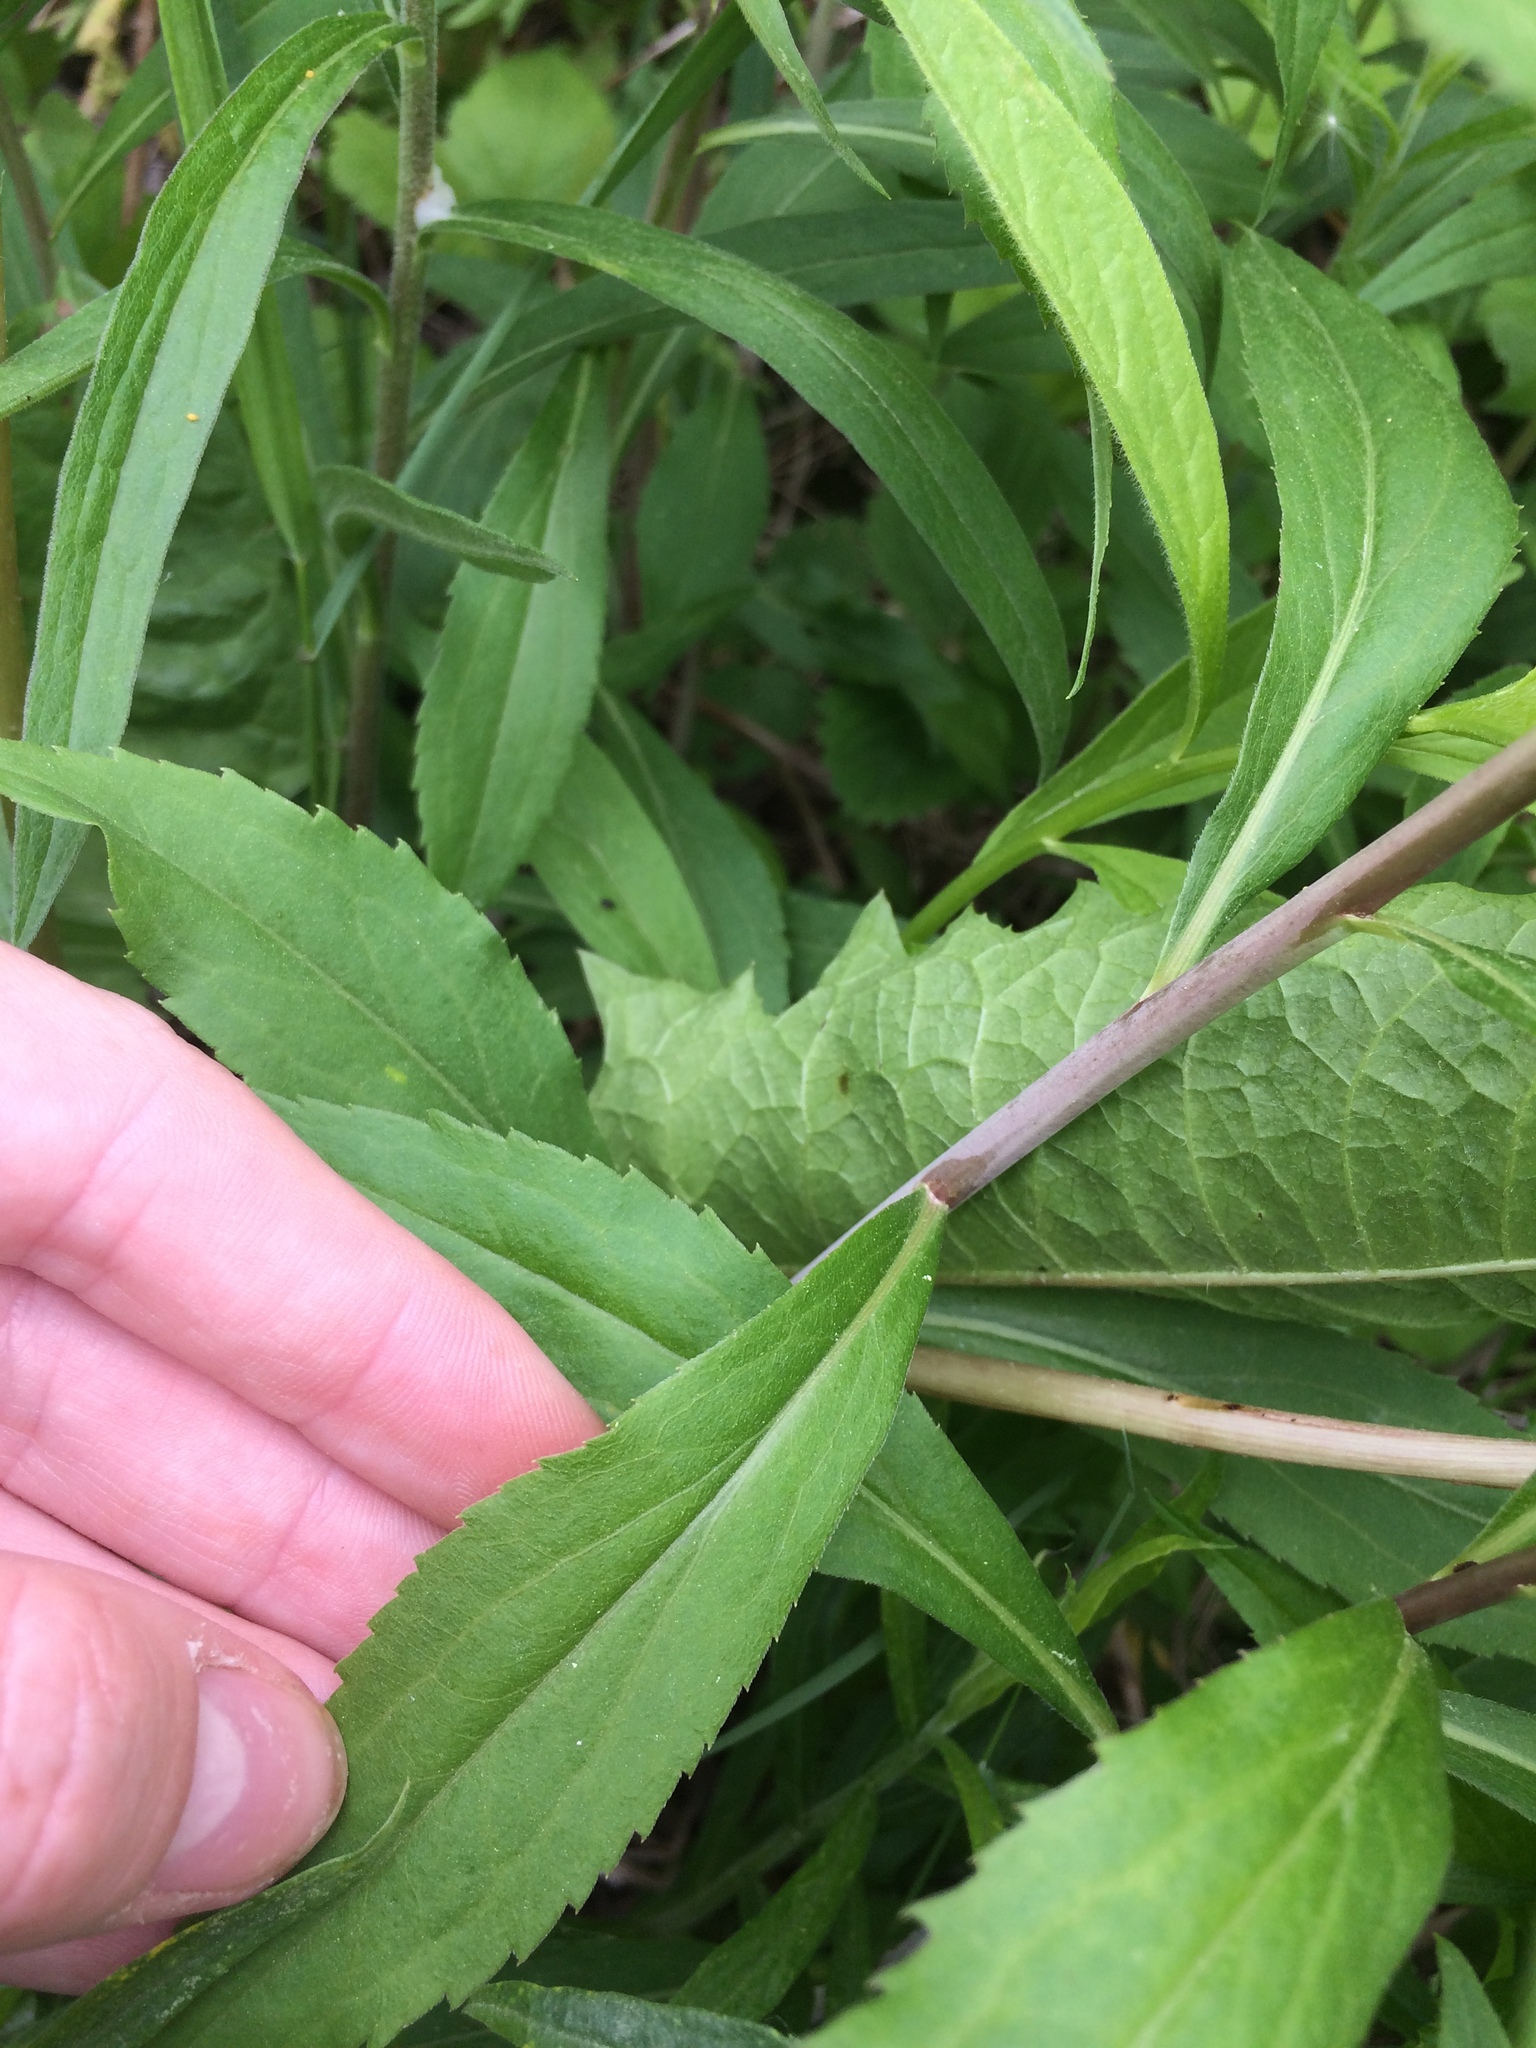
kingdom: Plantae
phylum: Tracheophyta
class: Magnoliopsida
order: Asterales
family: Asteraceae
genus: Solidago
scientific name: Solidago gigantea
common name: Giant goldenrod
